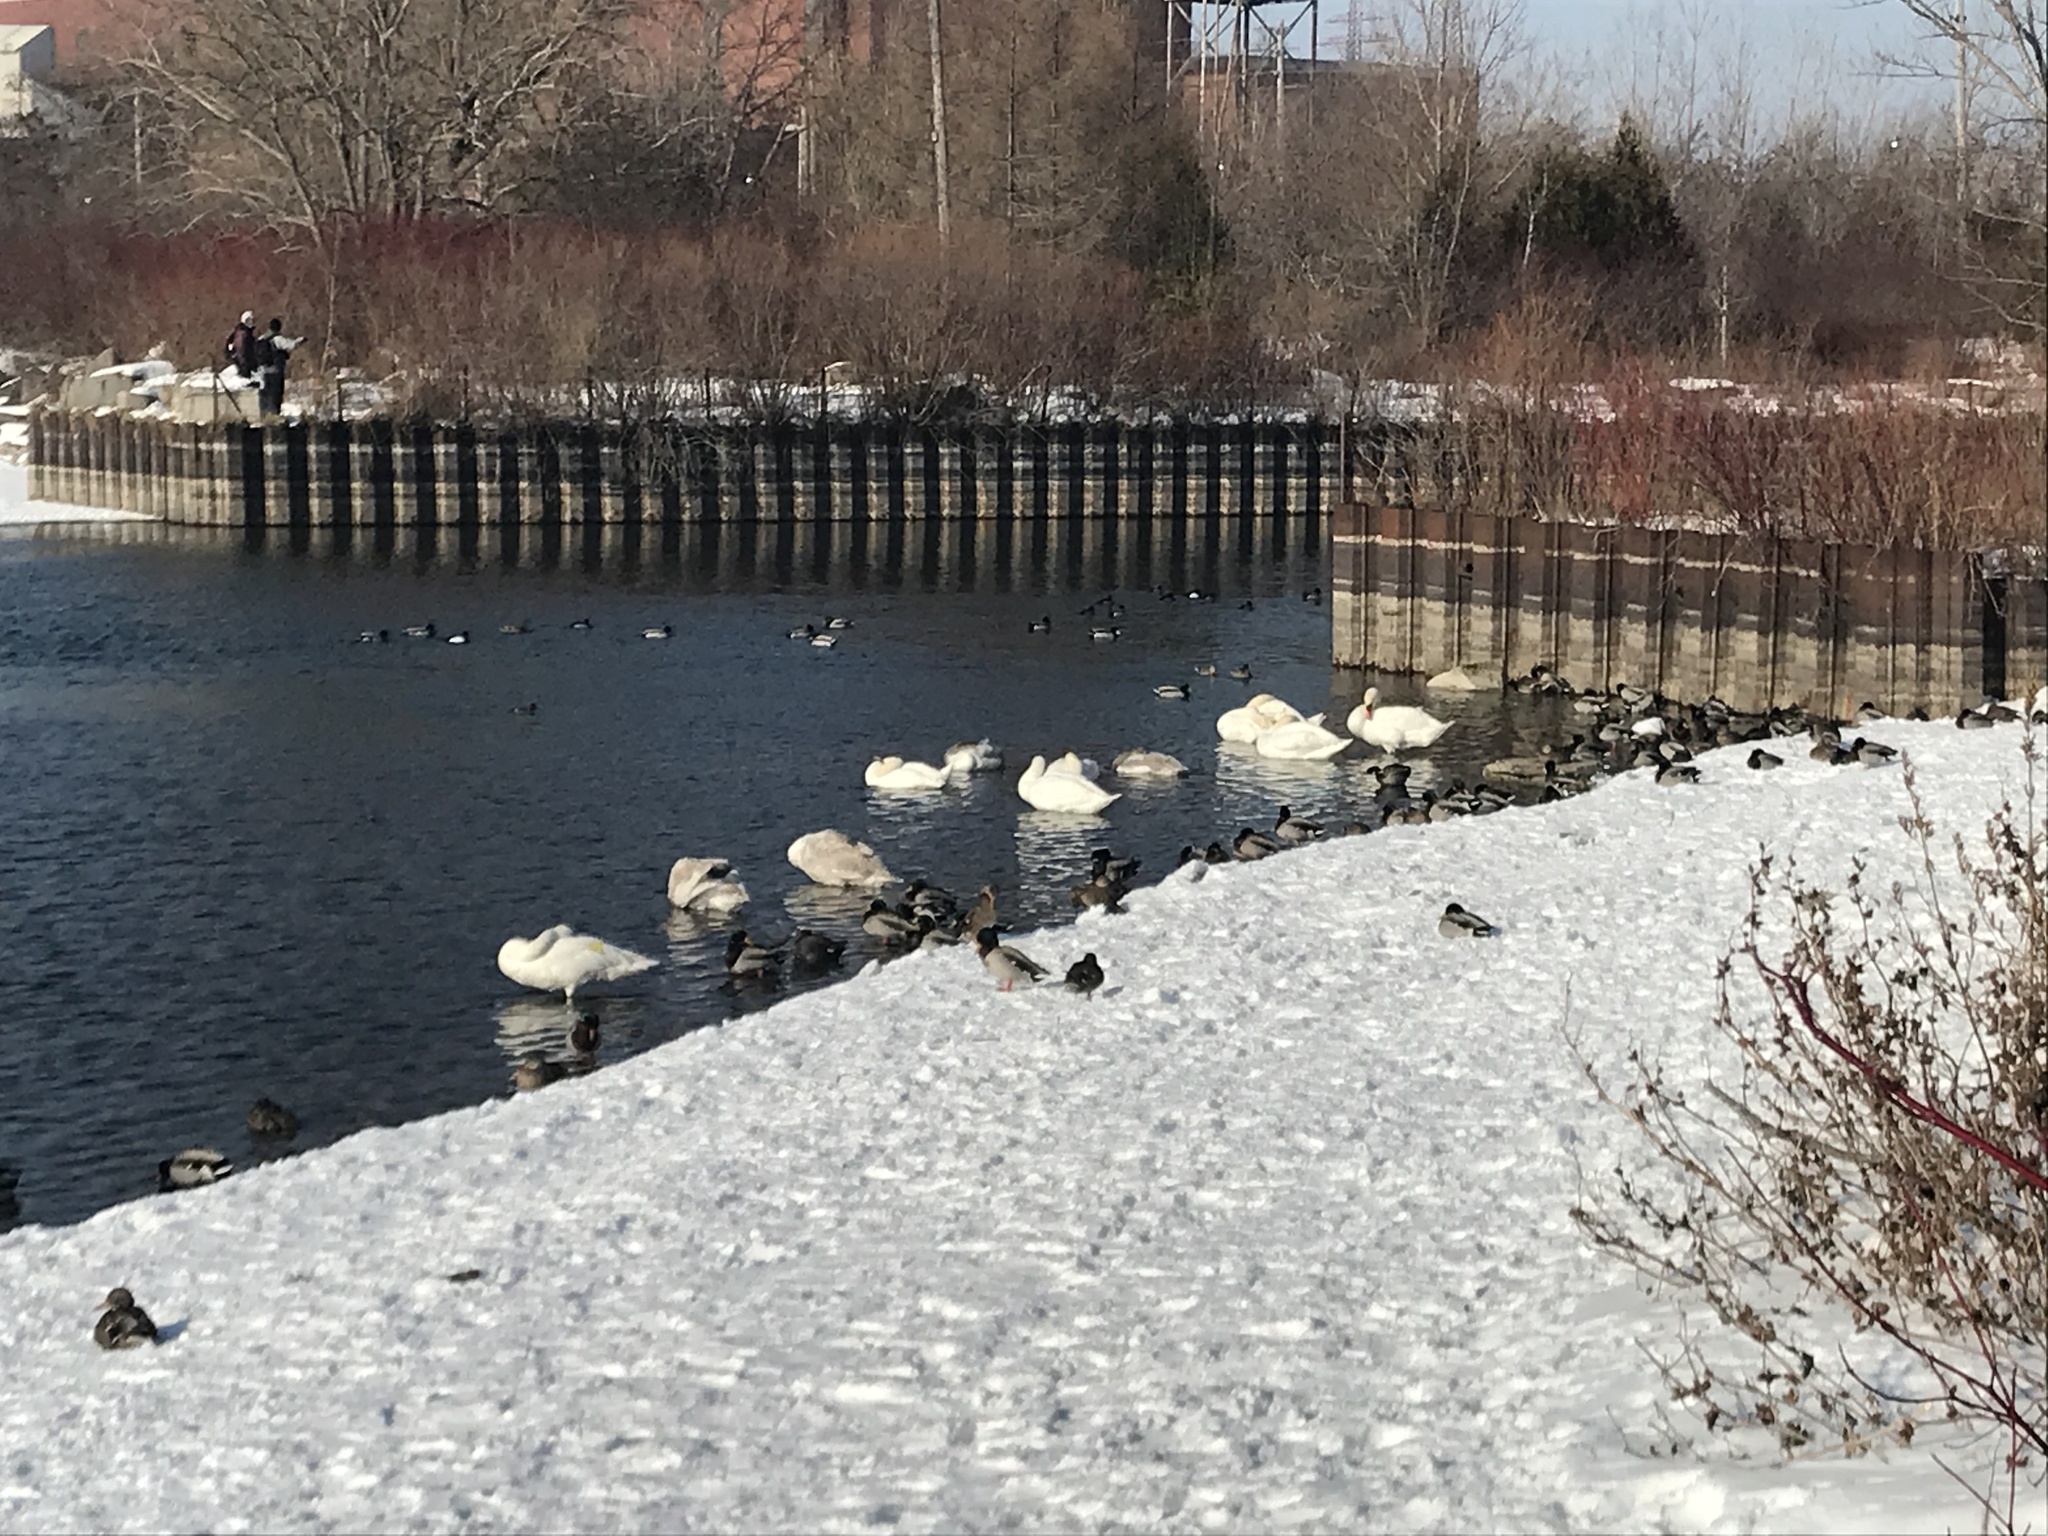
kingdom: Animalia
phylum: Chordata
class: Aves
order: Anseriformes
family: Anatidae
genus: Cygnus
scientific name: Cygnus olor
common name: Mute swan
